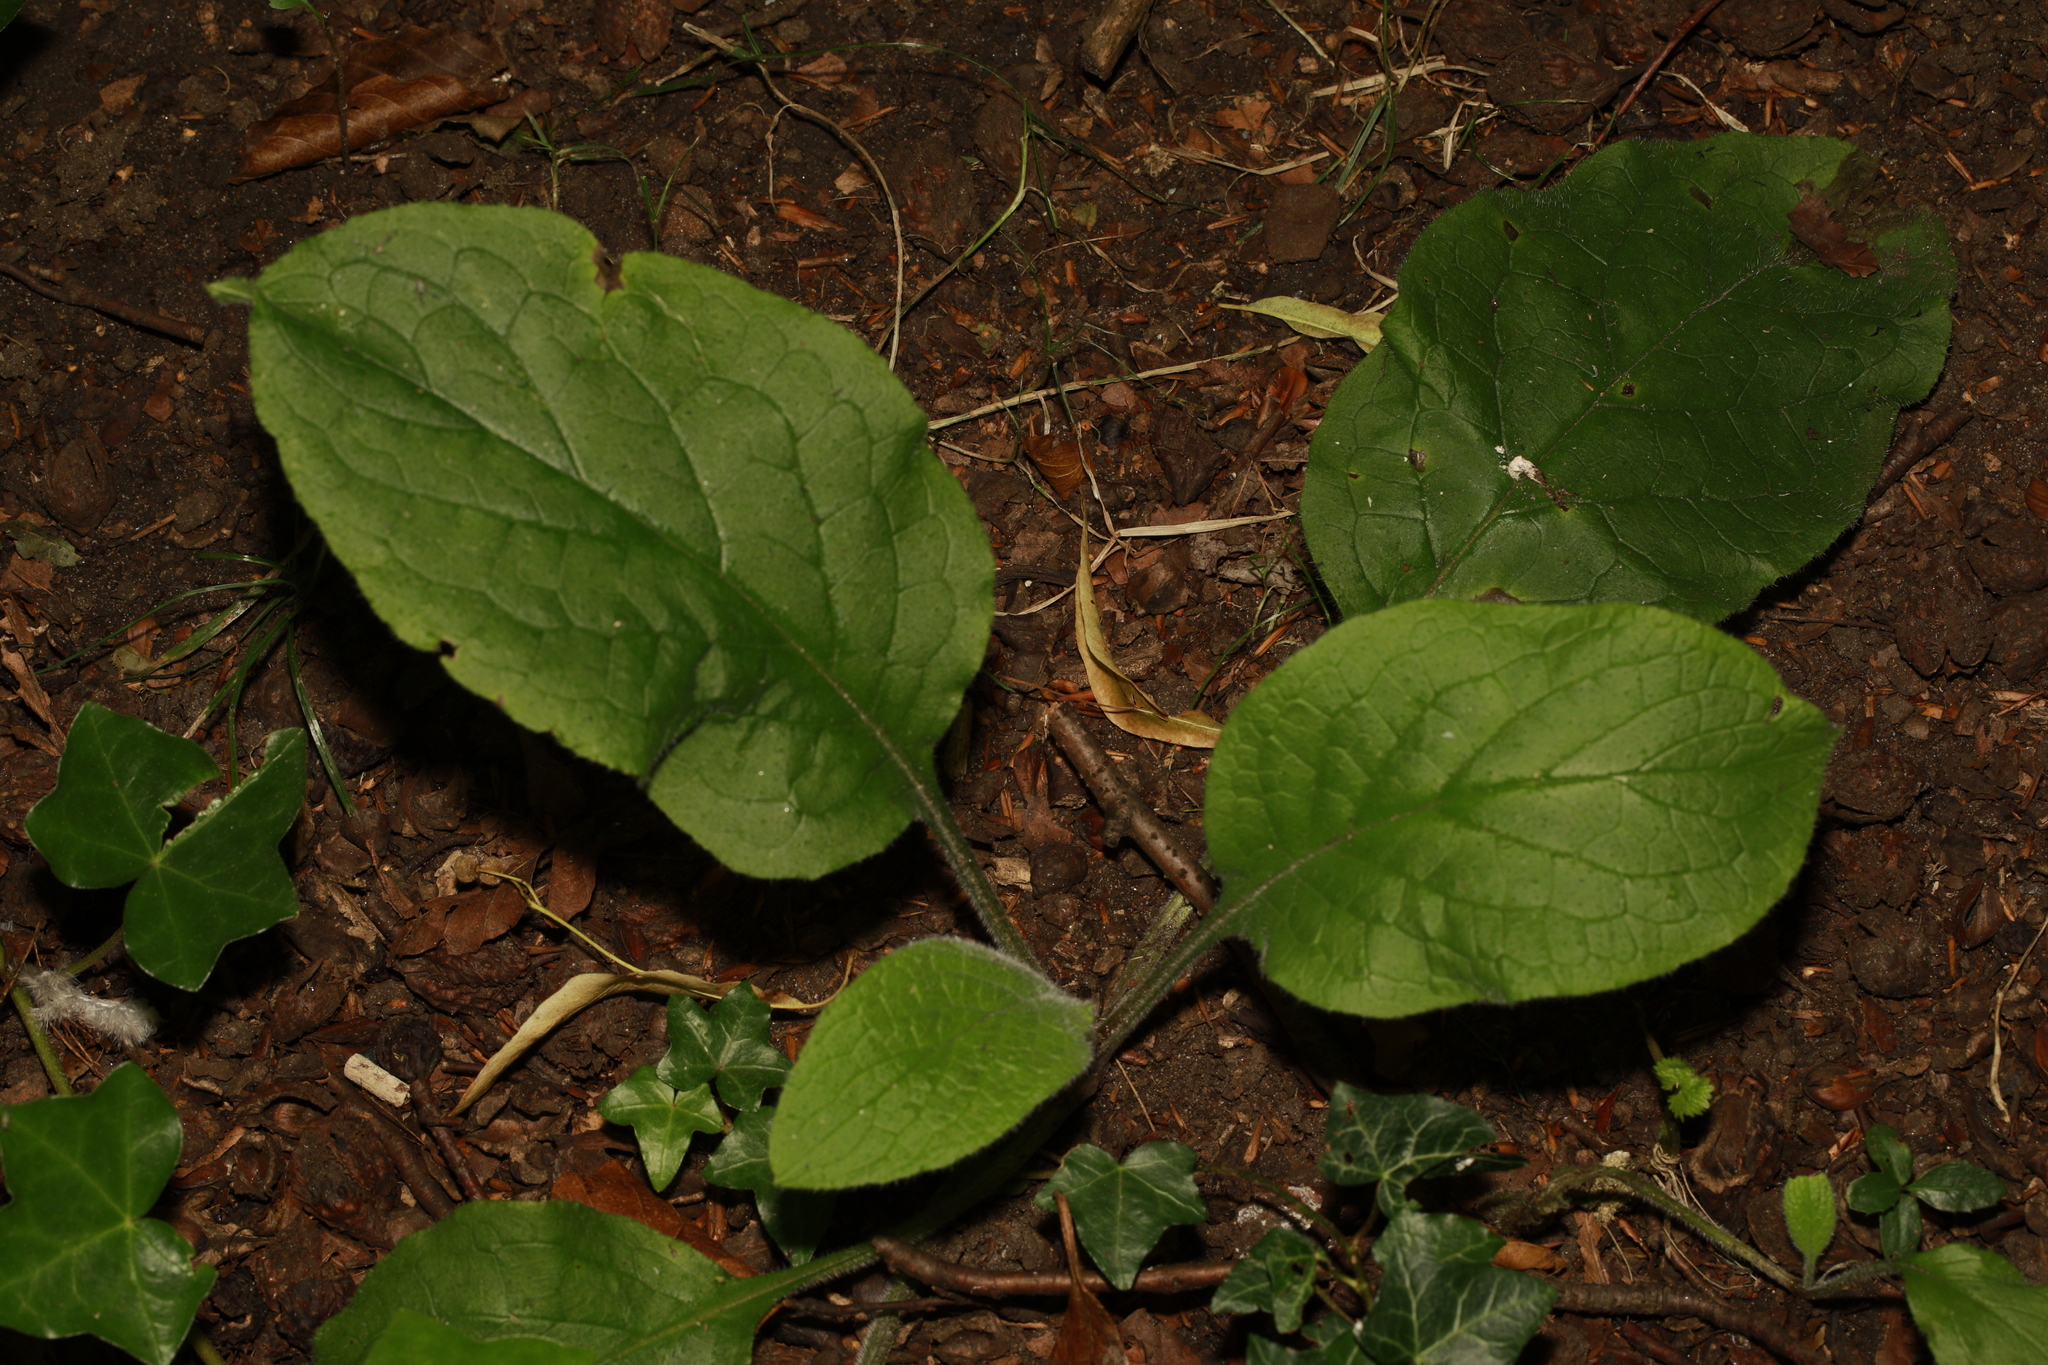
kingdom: Plantae
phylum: Tracheophyta
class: Magnoliopsida
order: Boraginales
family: Boraginaceae
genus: Pentaglottis
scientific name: Pentaglottis sempervirens
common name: Green alkanet
